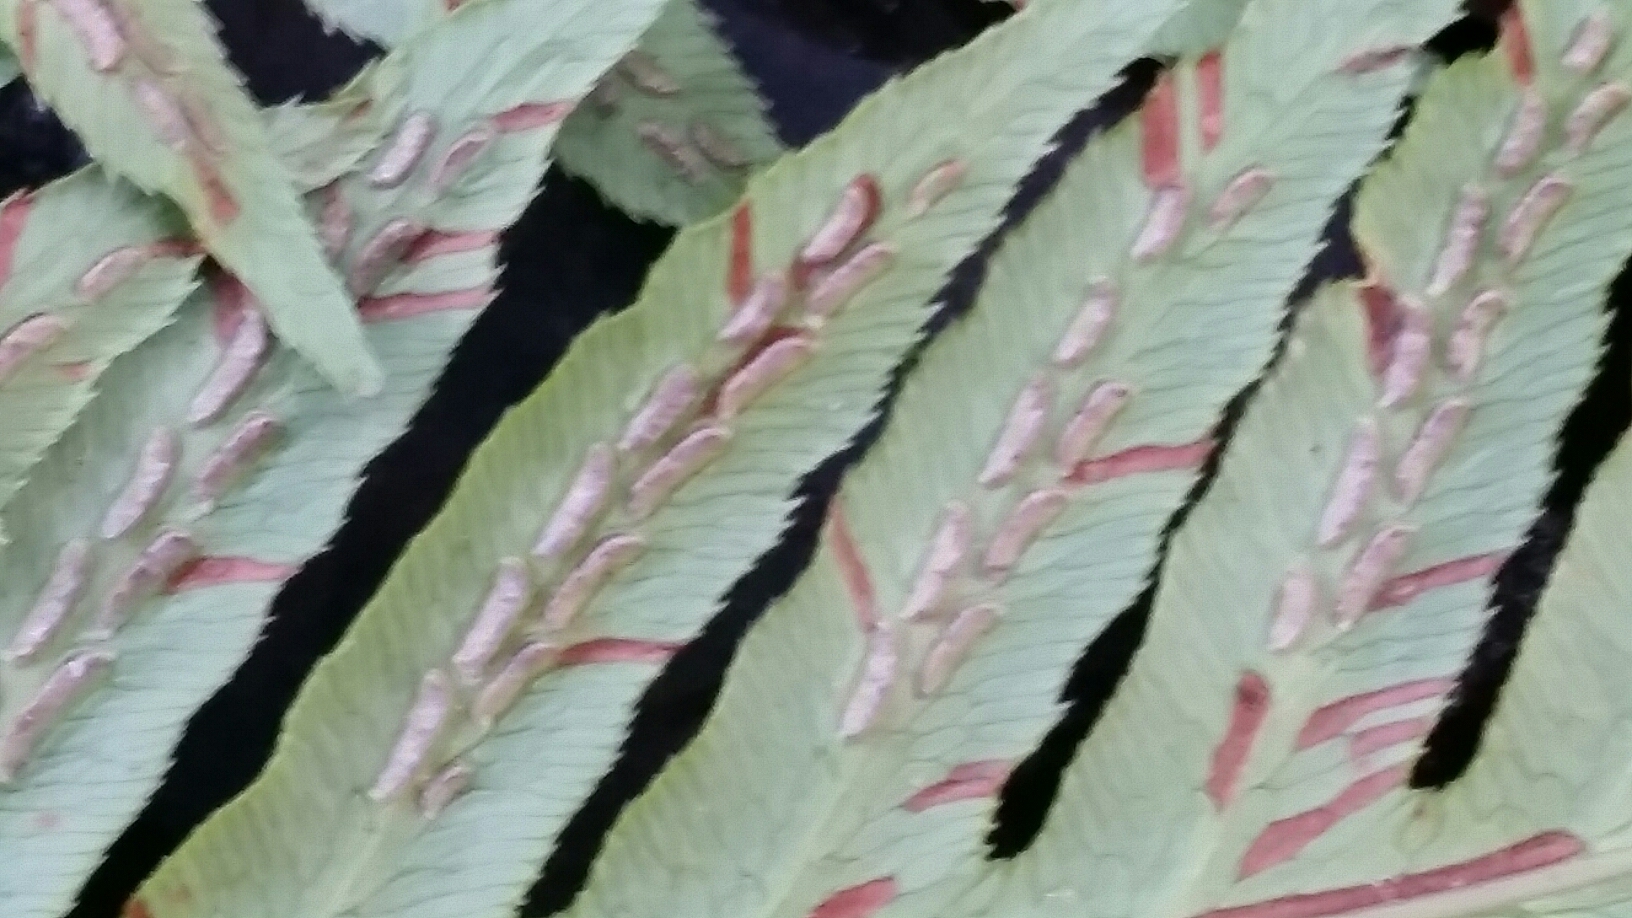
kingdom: Plantae
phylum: Tracheophyta
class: Polypodiopsida
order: Polypodiales
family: Blechnaceae
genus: Woodwardia
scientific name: Woodwardia fimbriata
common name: Giant chain fern
